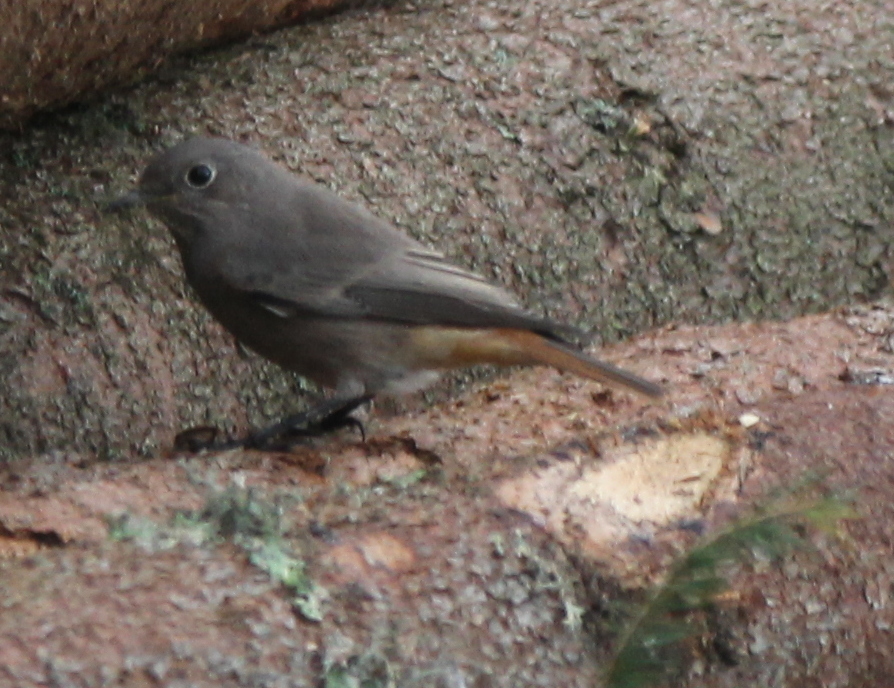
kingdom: Animalia
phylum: Chordata
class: Aves
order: Passeriformes
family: Muscicapidae
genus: Phoenicurus
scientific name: Phoenicurus ochruros
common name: Black redstart
